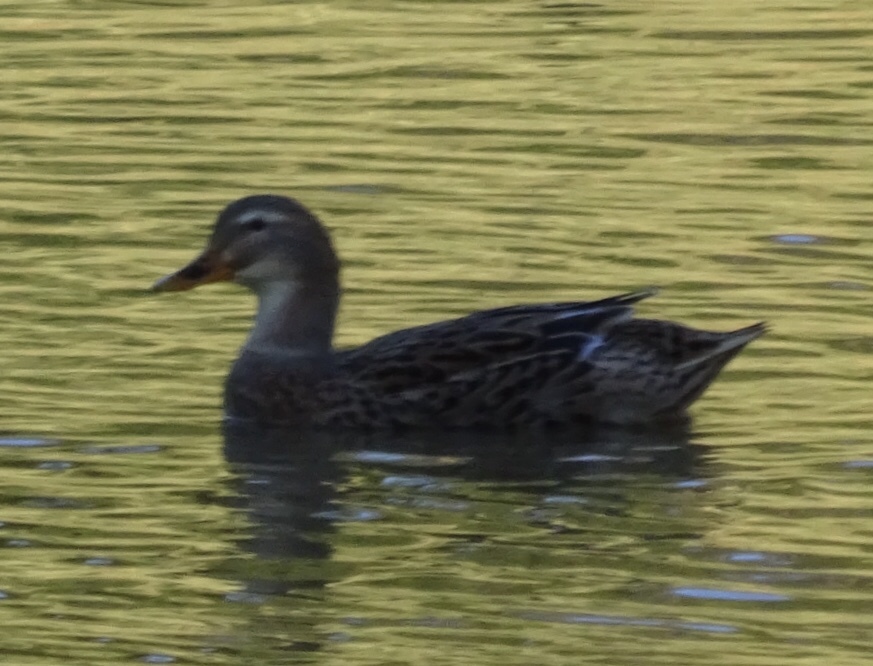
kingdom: Animalia
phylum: Chordata
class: Aves
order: Anseriformes
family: Anatidae
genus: Anas
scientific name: Anas platyrhynchos
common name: Mallard
